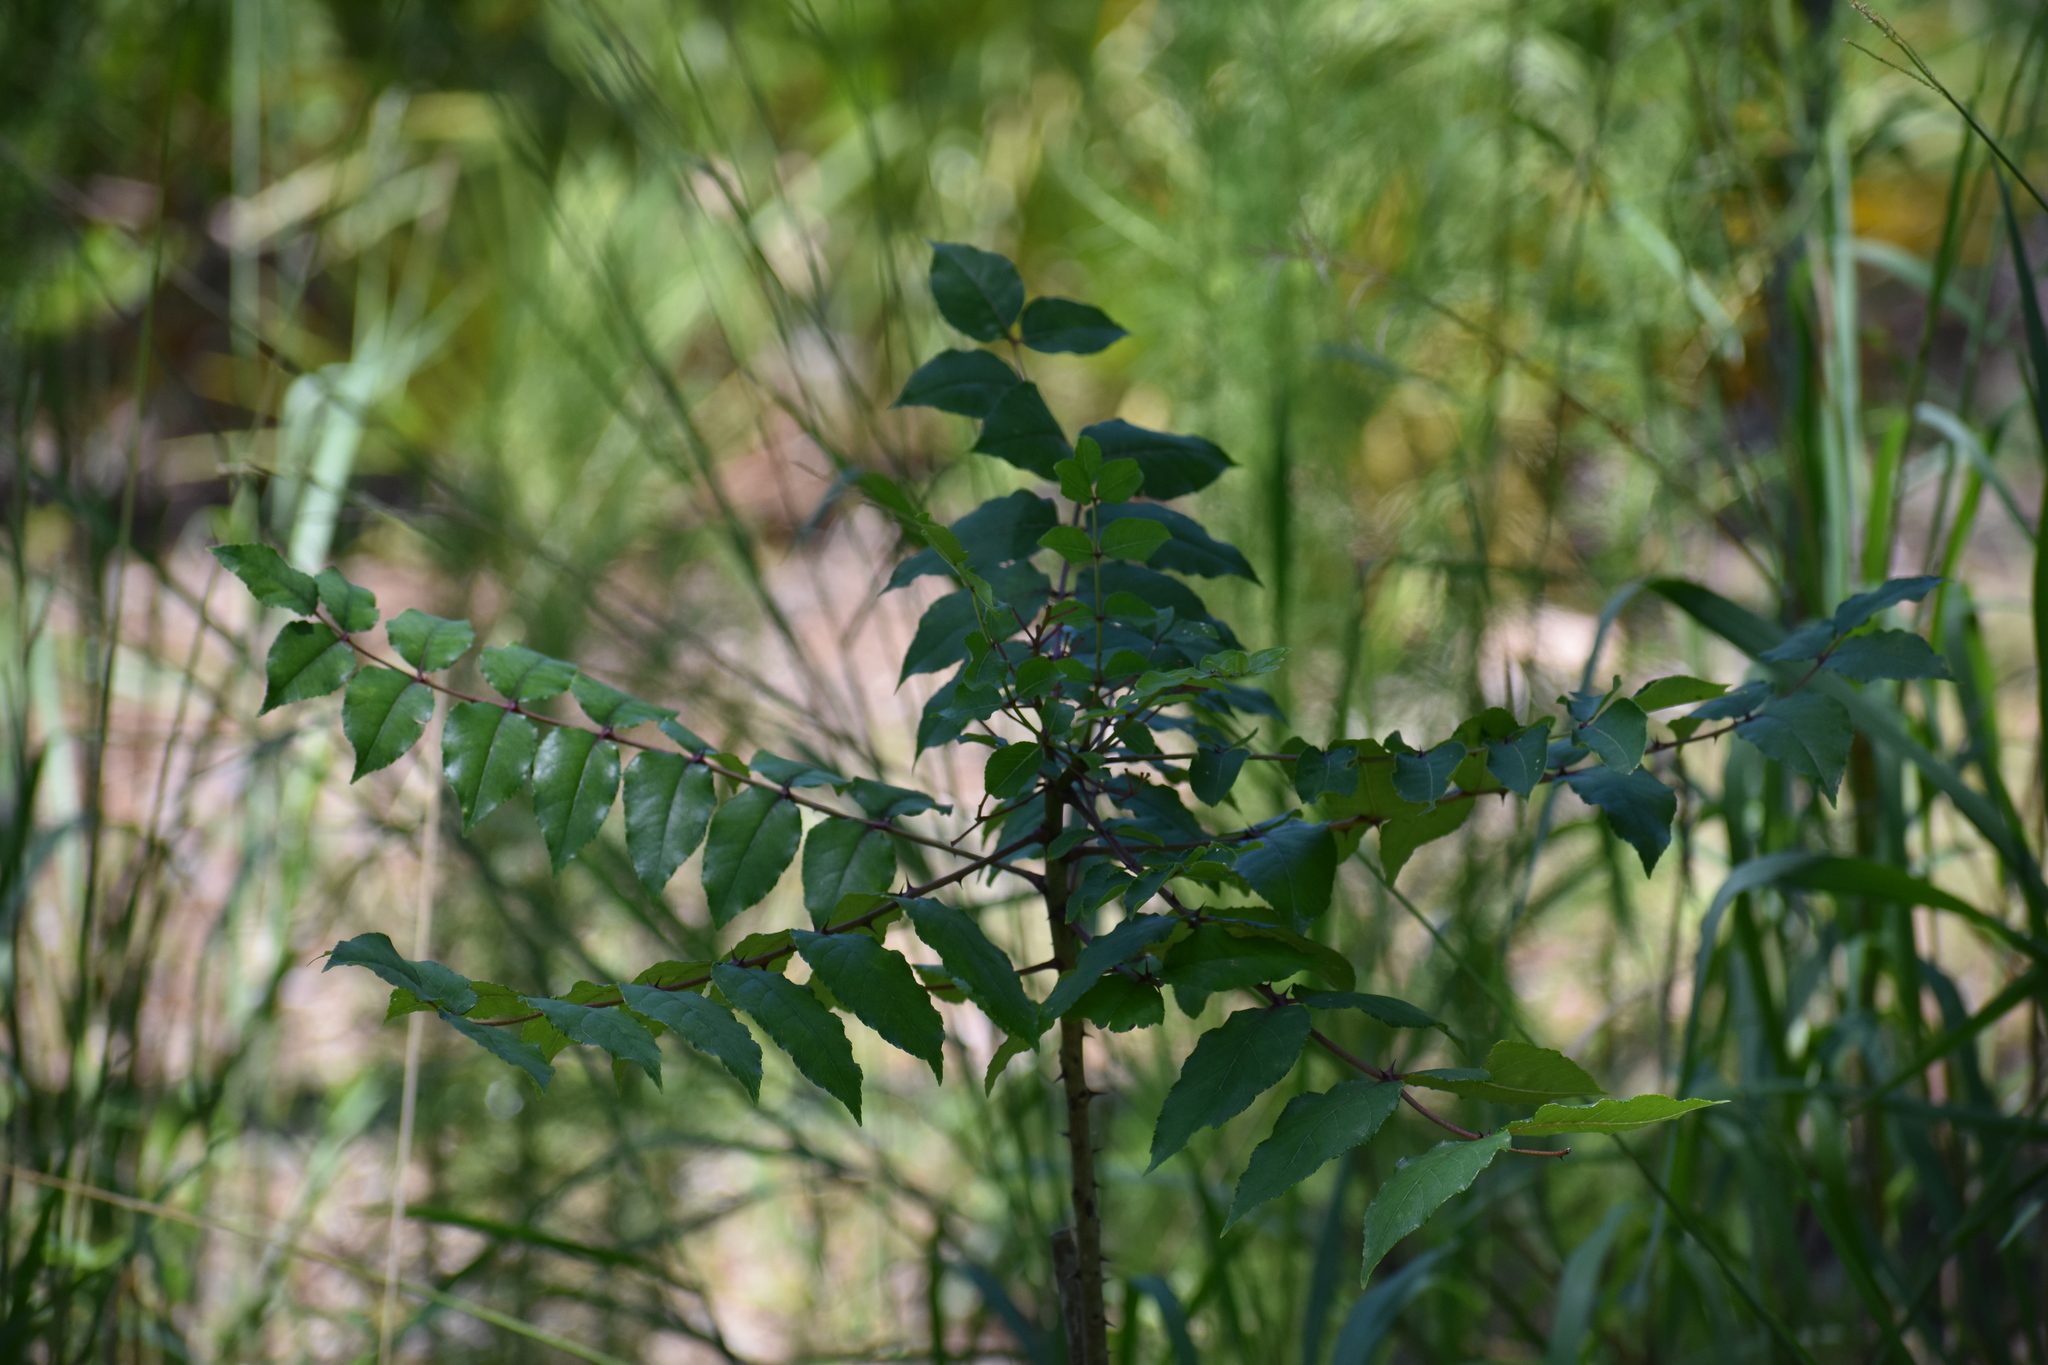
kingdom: Plantae
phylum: Tracheophyta
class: Magnoliopsida
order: Sapindales
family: Rutaceae
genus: Zanthoxylum
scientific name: Zanthoxylum clava-herculis
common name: Hercules'-club
